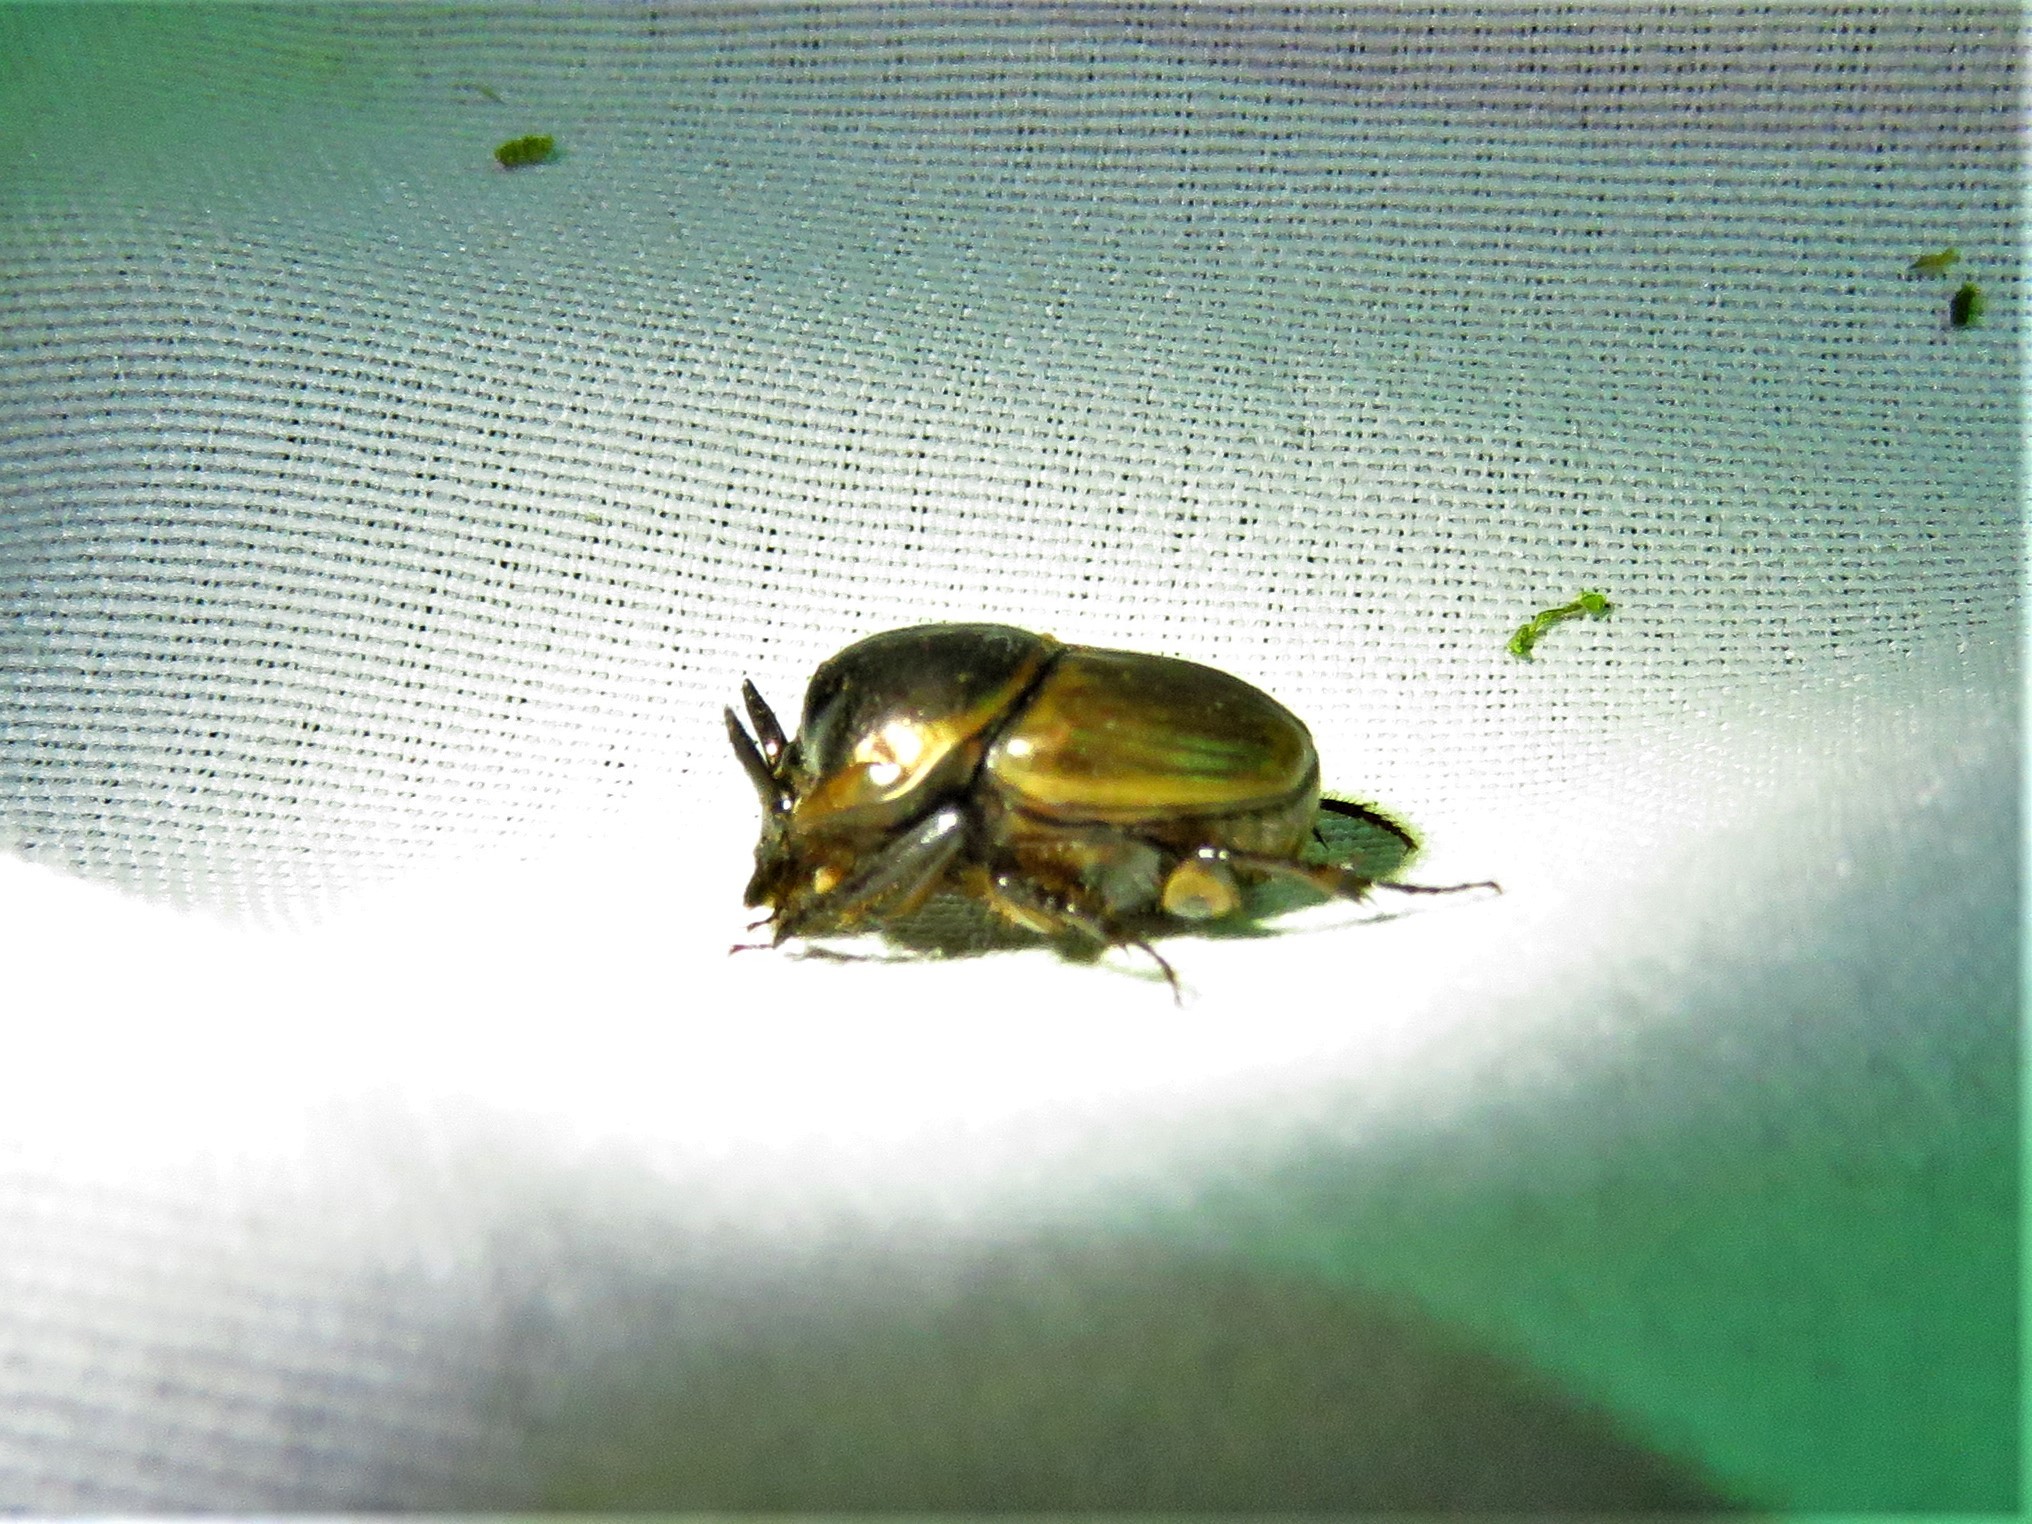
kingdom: Animalia
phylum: Arthropoda
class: Insecta
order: Coleoptera
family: Scarabaeidae
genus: Digitonthophagus
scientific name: Digitonthophagus gazella
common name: Brown dung beetle
